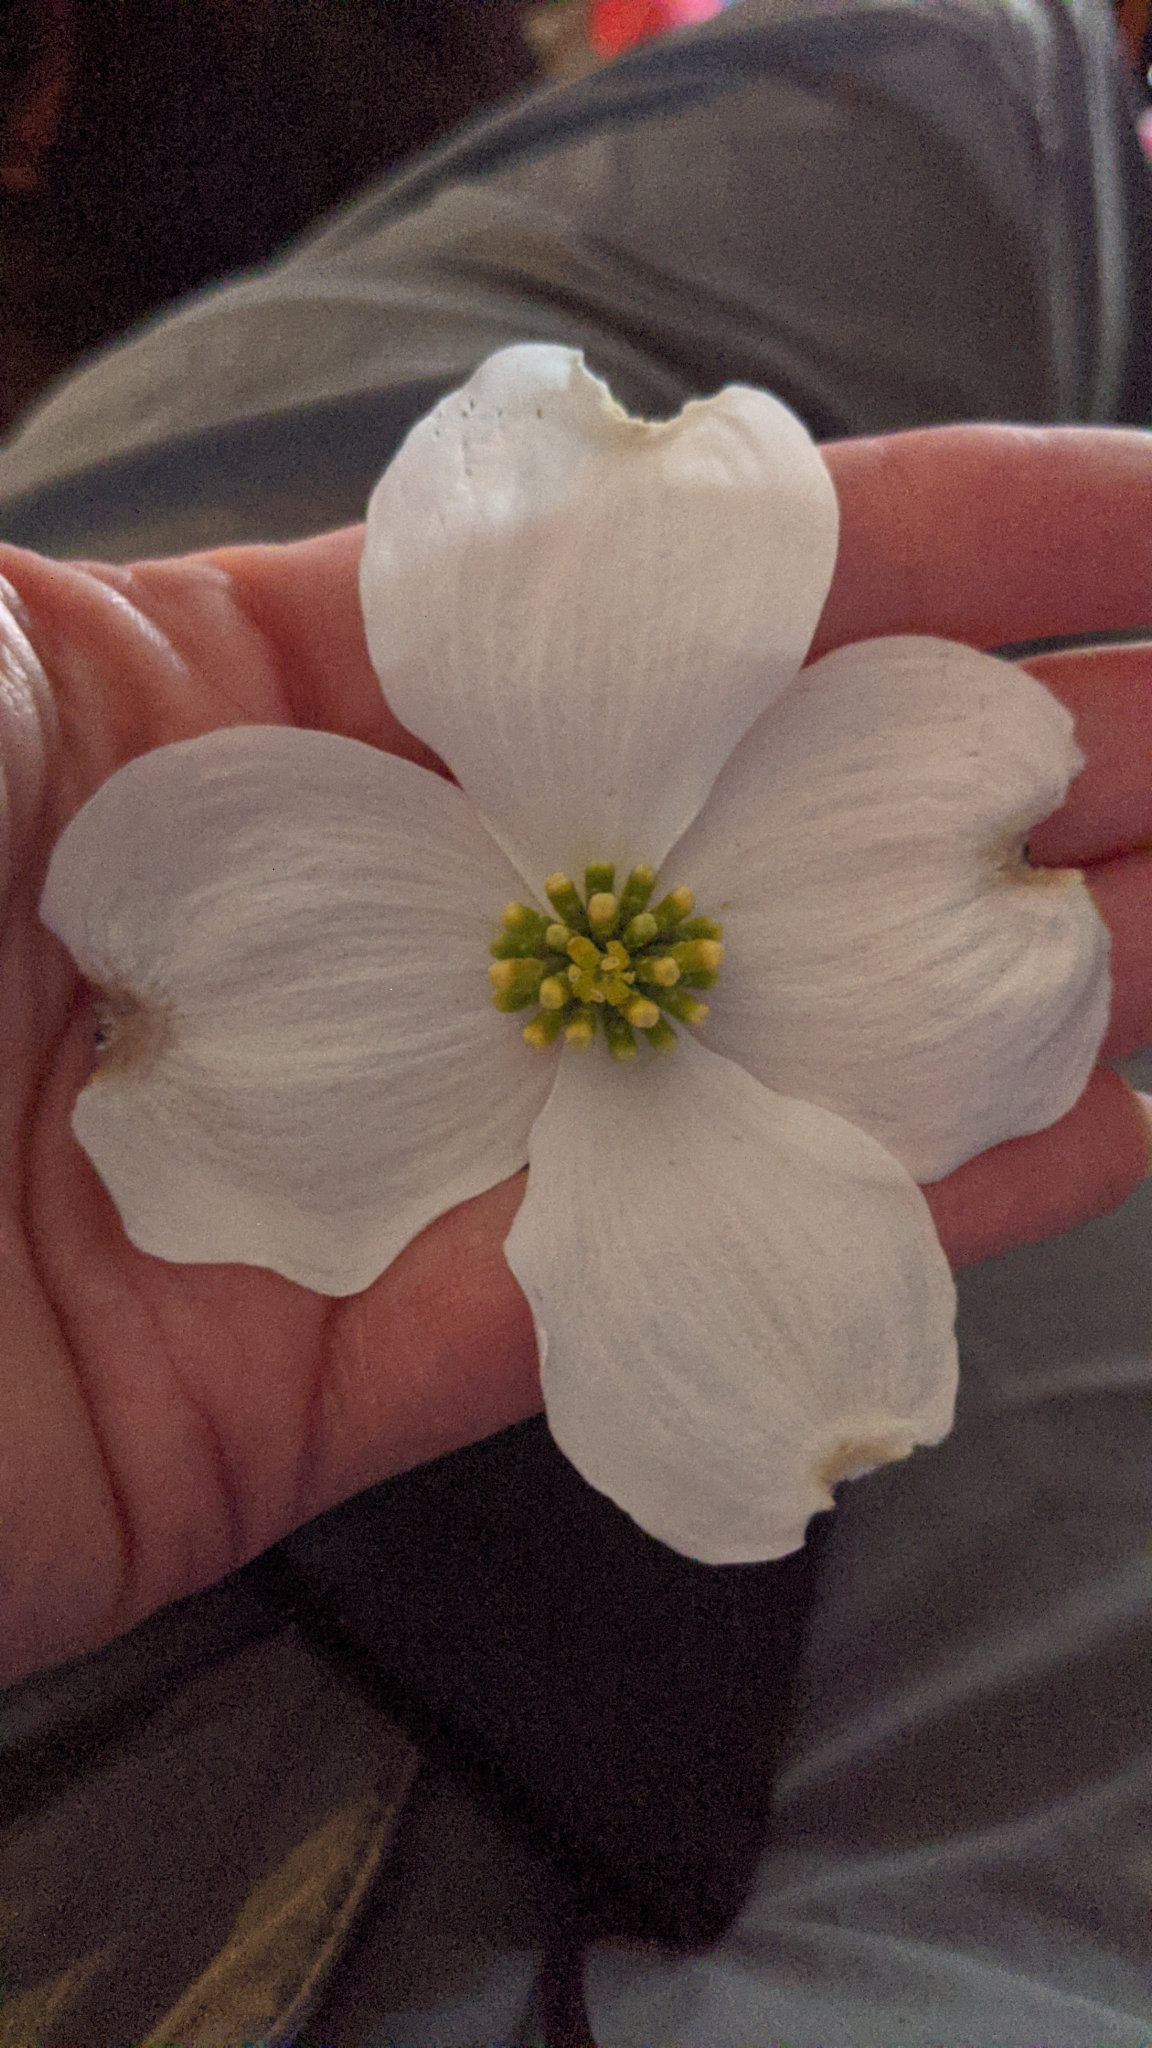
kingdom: Plantae
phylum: Tracheophyta
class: Magnoliopsida
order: Cornales
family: Cornaceae
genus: Cornus
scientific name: Cornus florida
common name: Flowering dogwood
